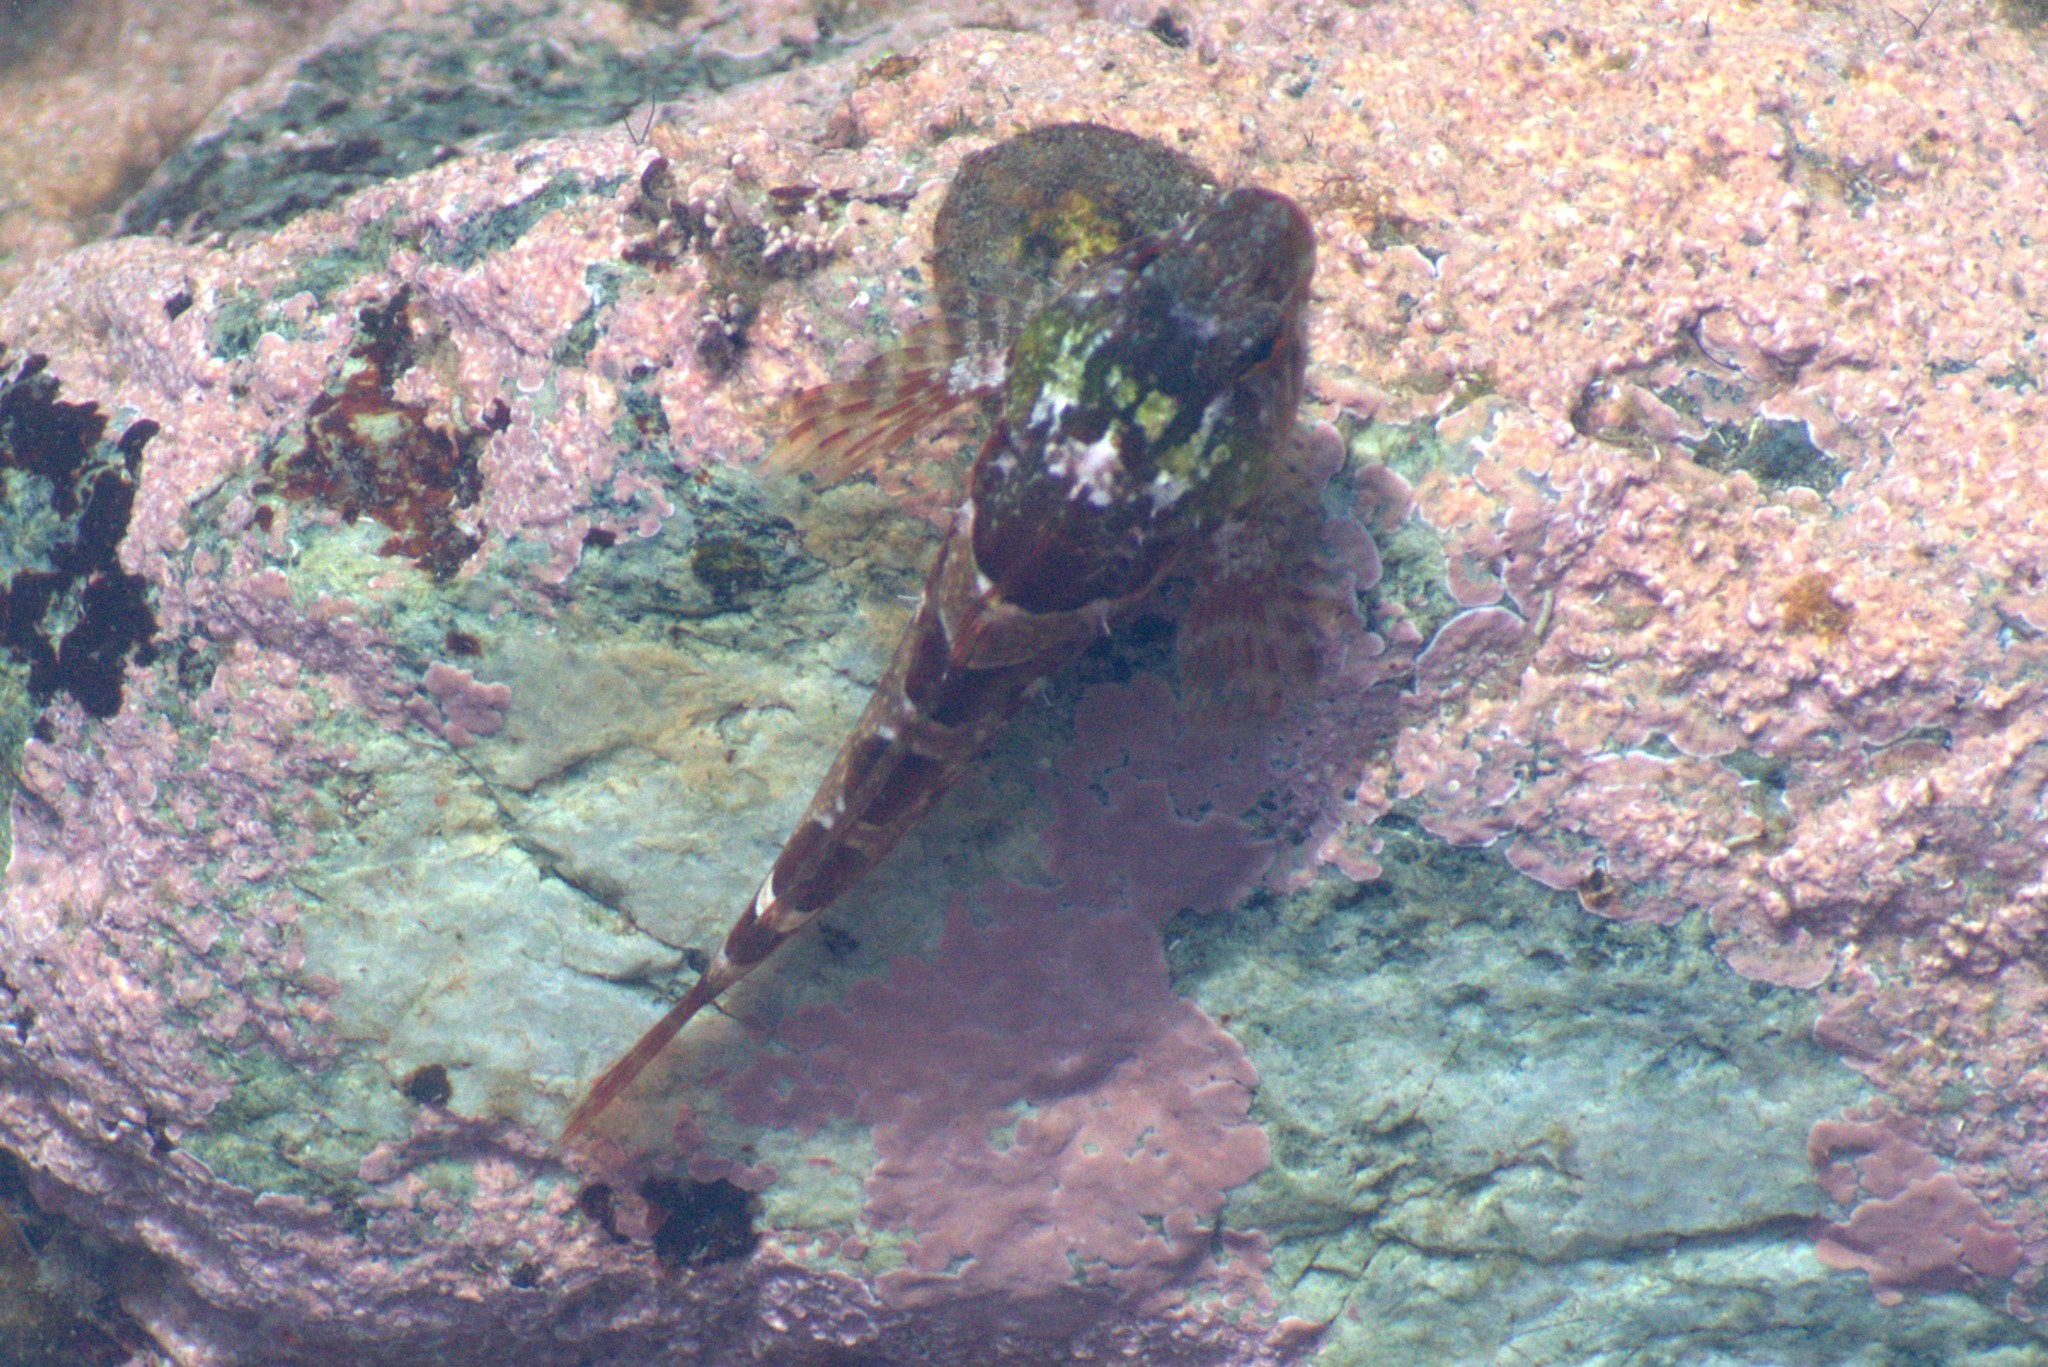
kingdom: Animalia
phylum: Chordata
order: Scorpaeniformes
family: Cottidae
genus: Oligocottus
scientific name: Oligocottus maculosus
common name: Tidepool sculpin
